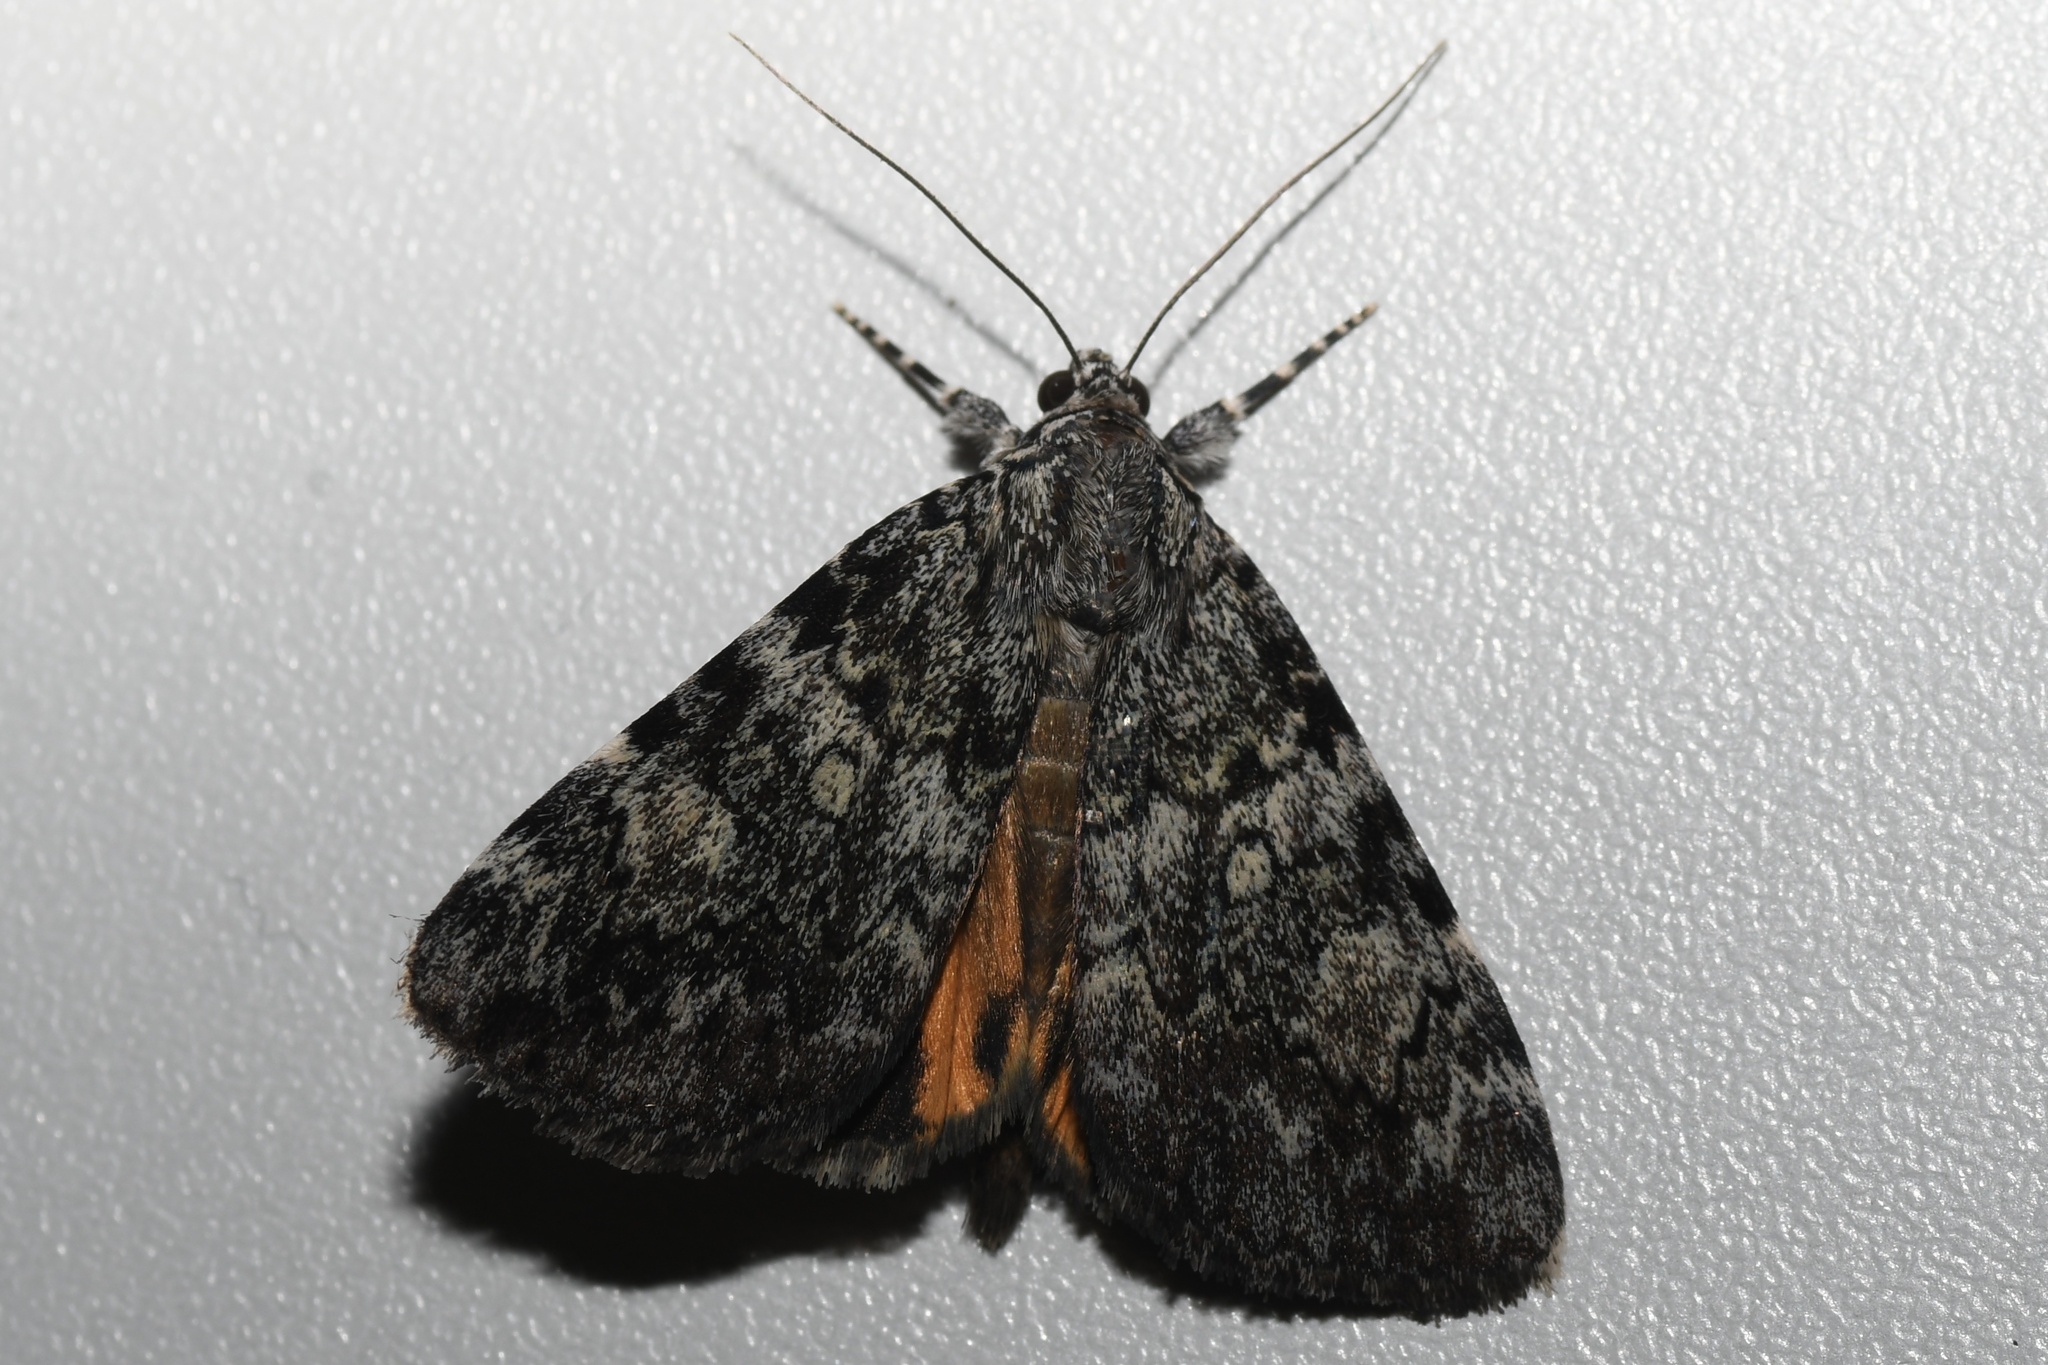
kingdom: Animalia
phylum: Arthropoda
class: Insecta
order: Lepidoptera
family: Erebidae
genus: Catocala
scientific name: Catocala lineella
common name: Little lined underwing
